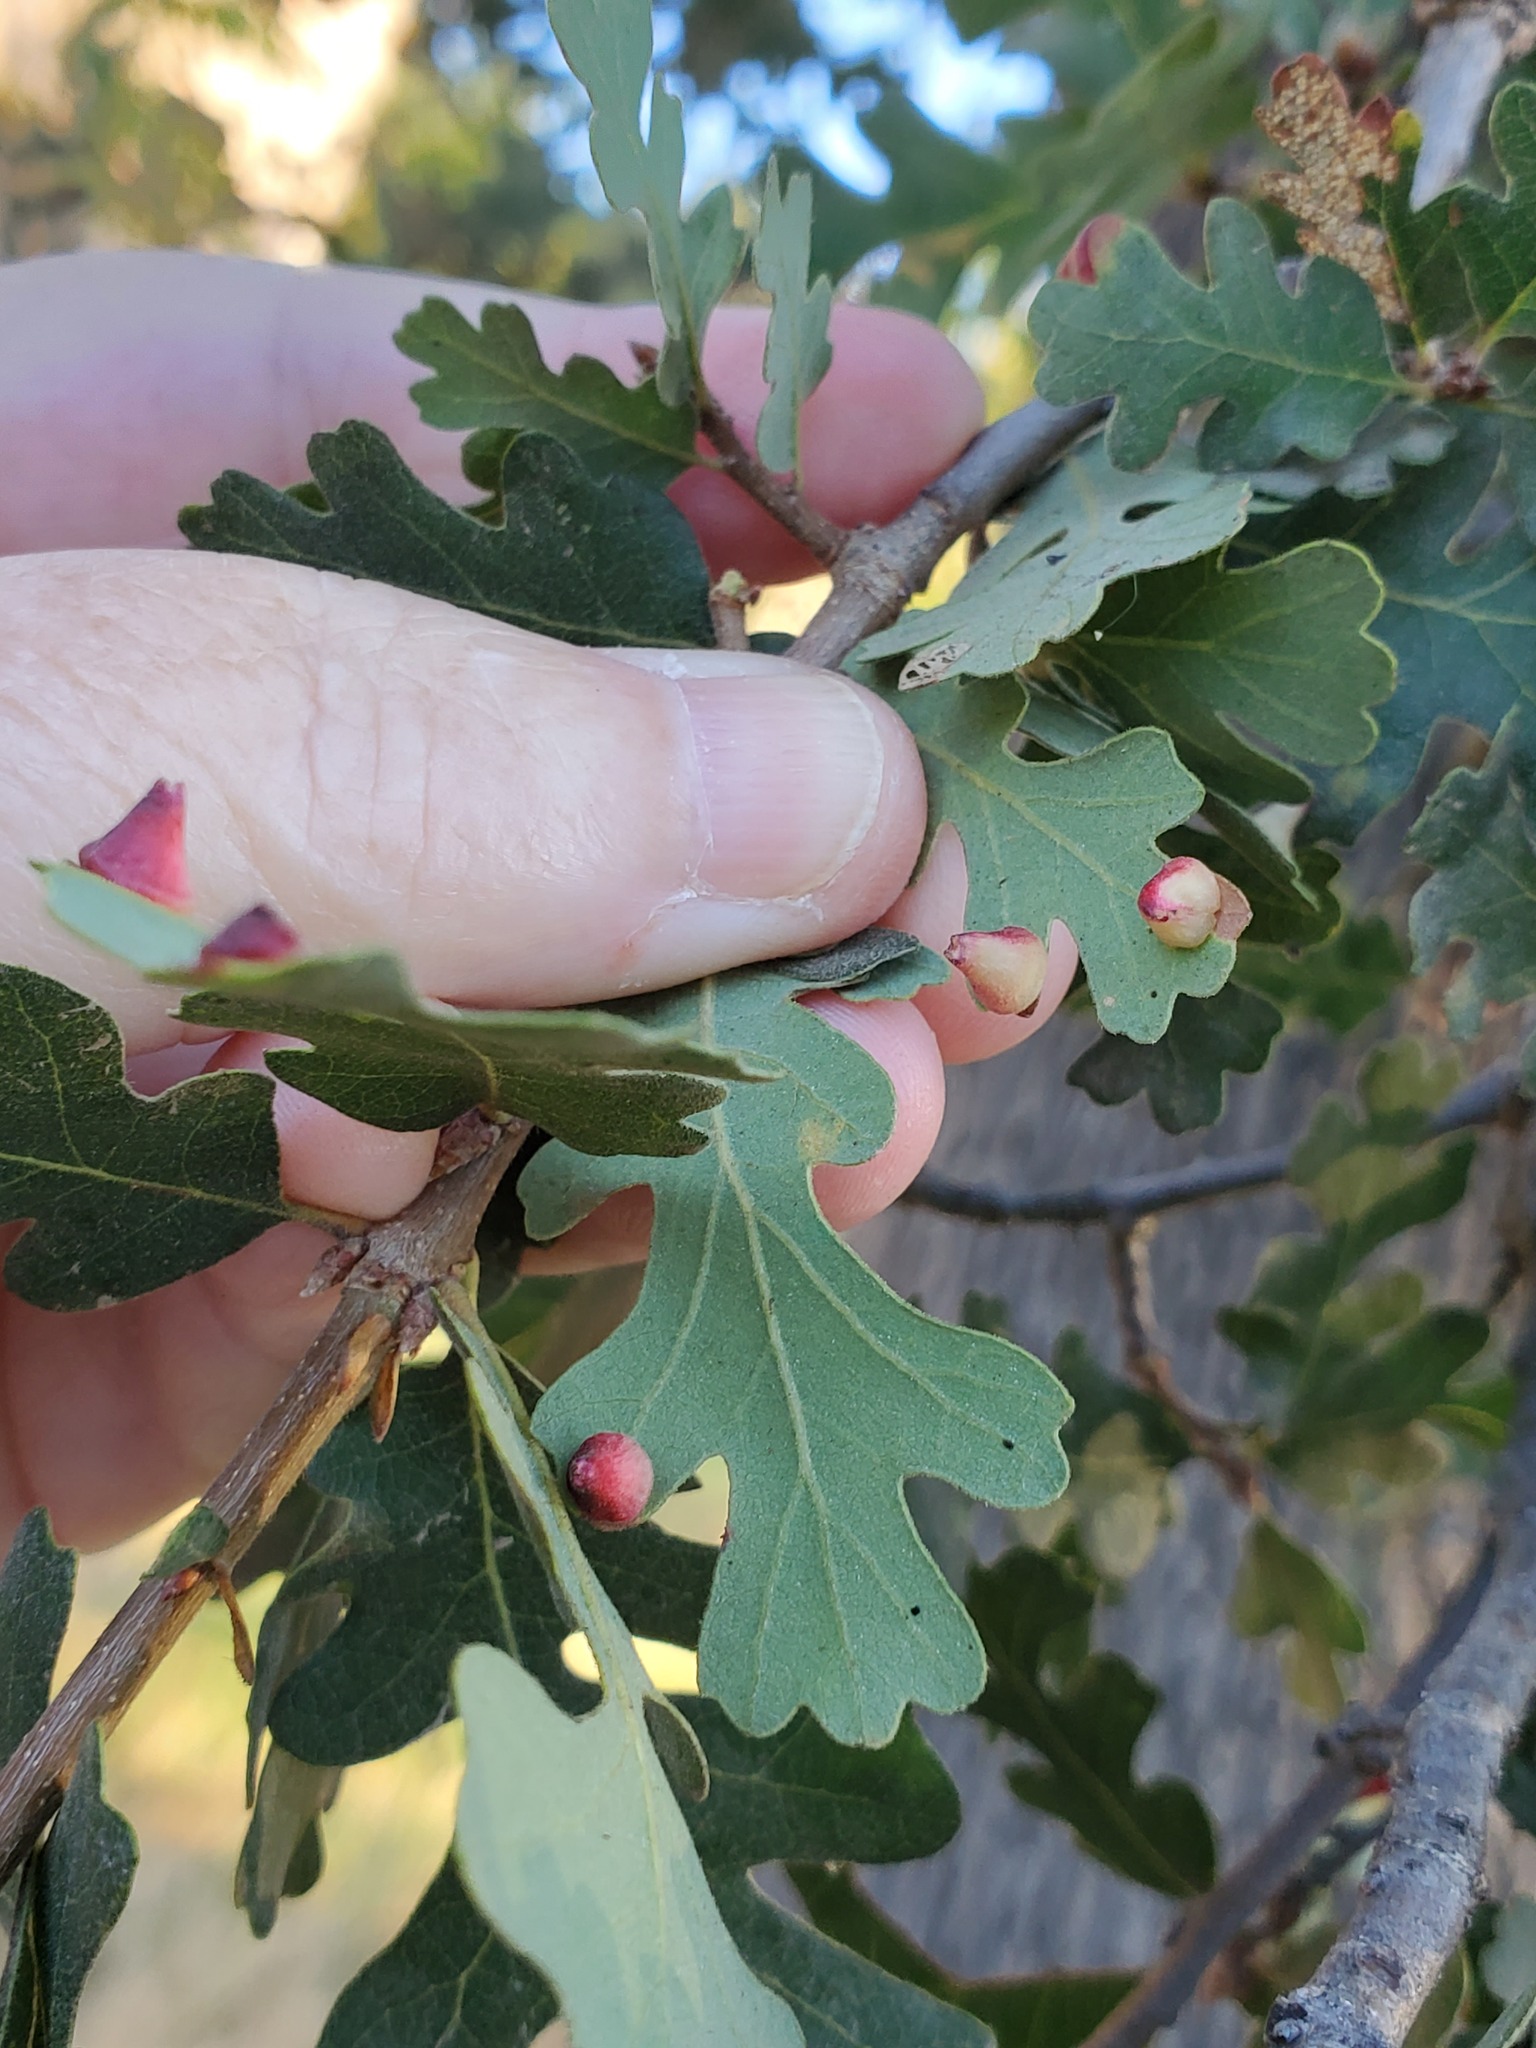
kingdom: Animalia
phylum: Arthropoda
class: Insecta
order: Hymenoptera
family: Cynipidae
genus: Andricus
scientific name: Andricus
